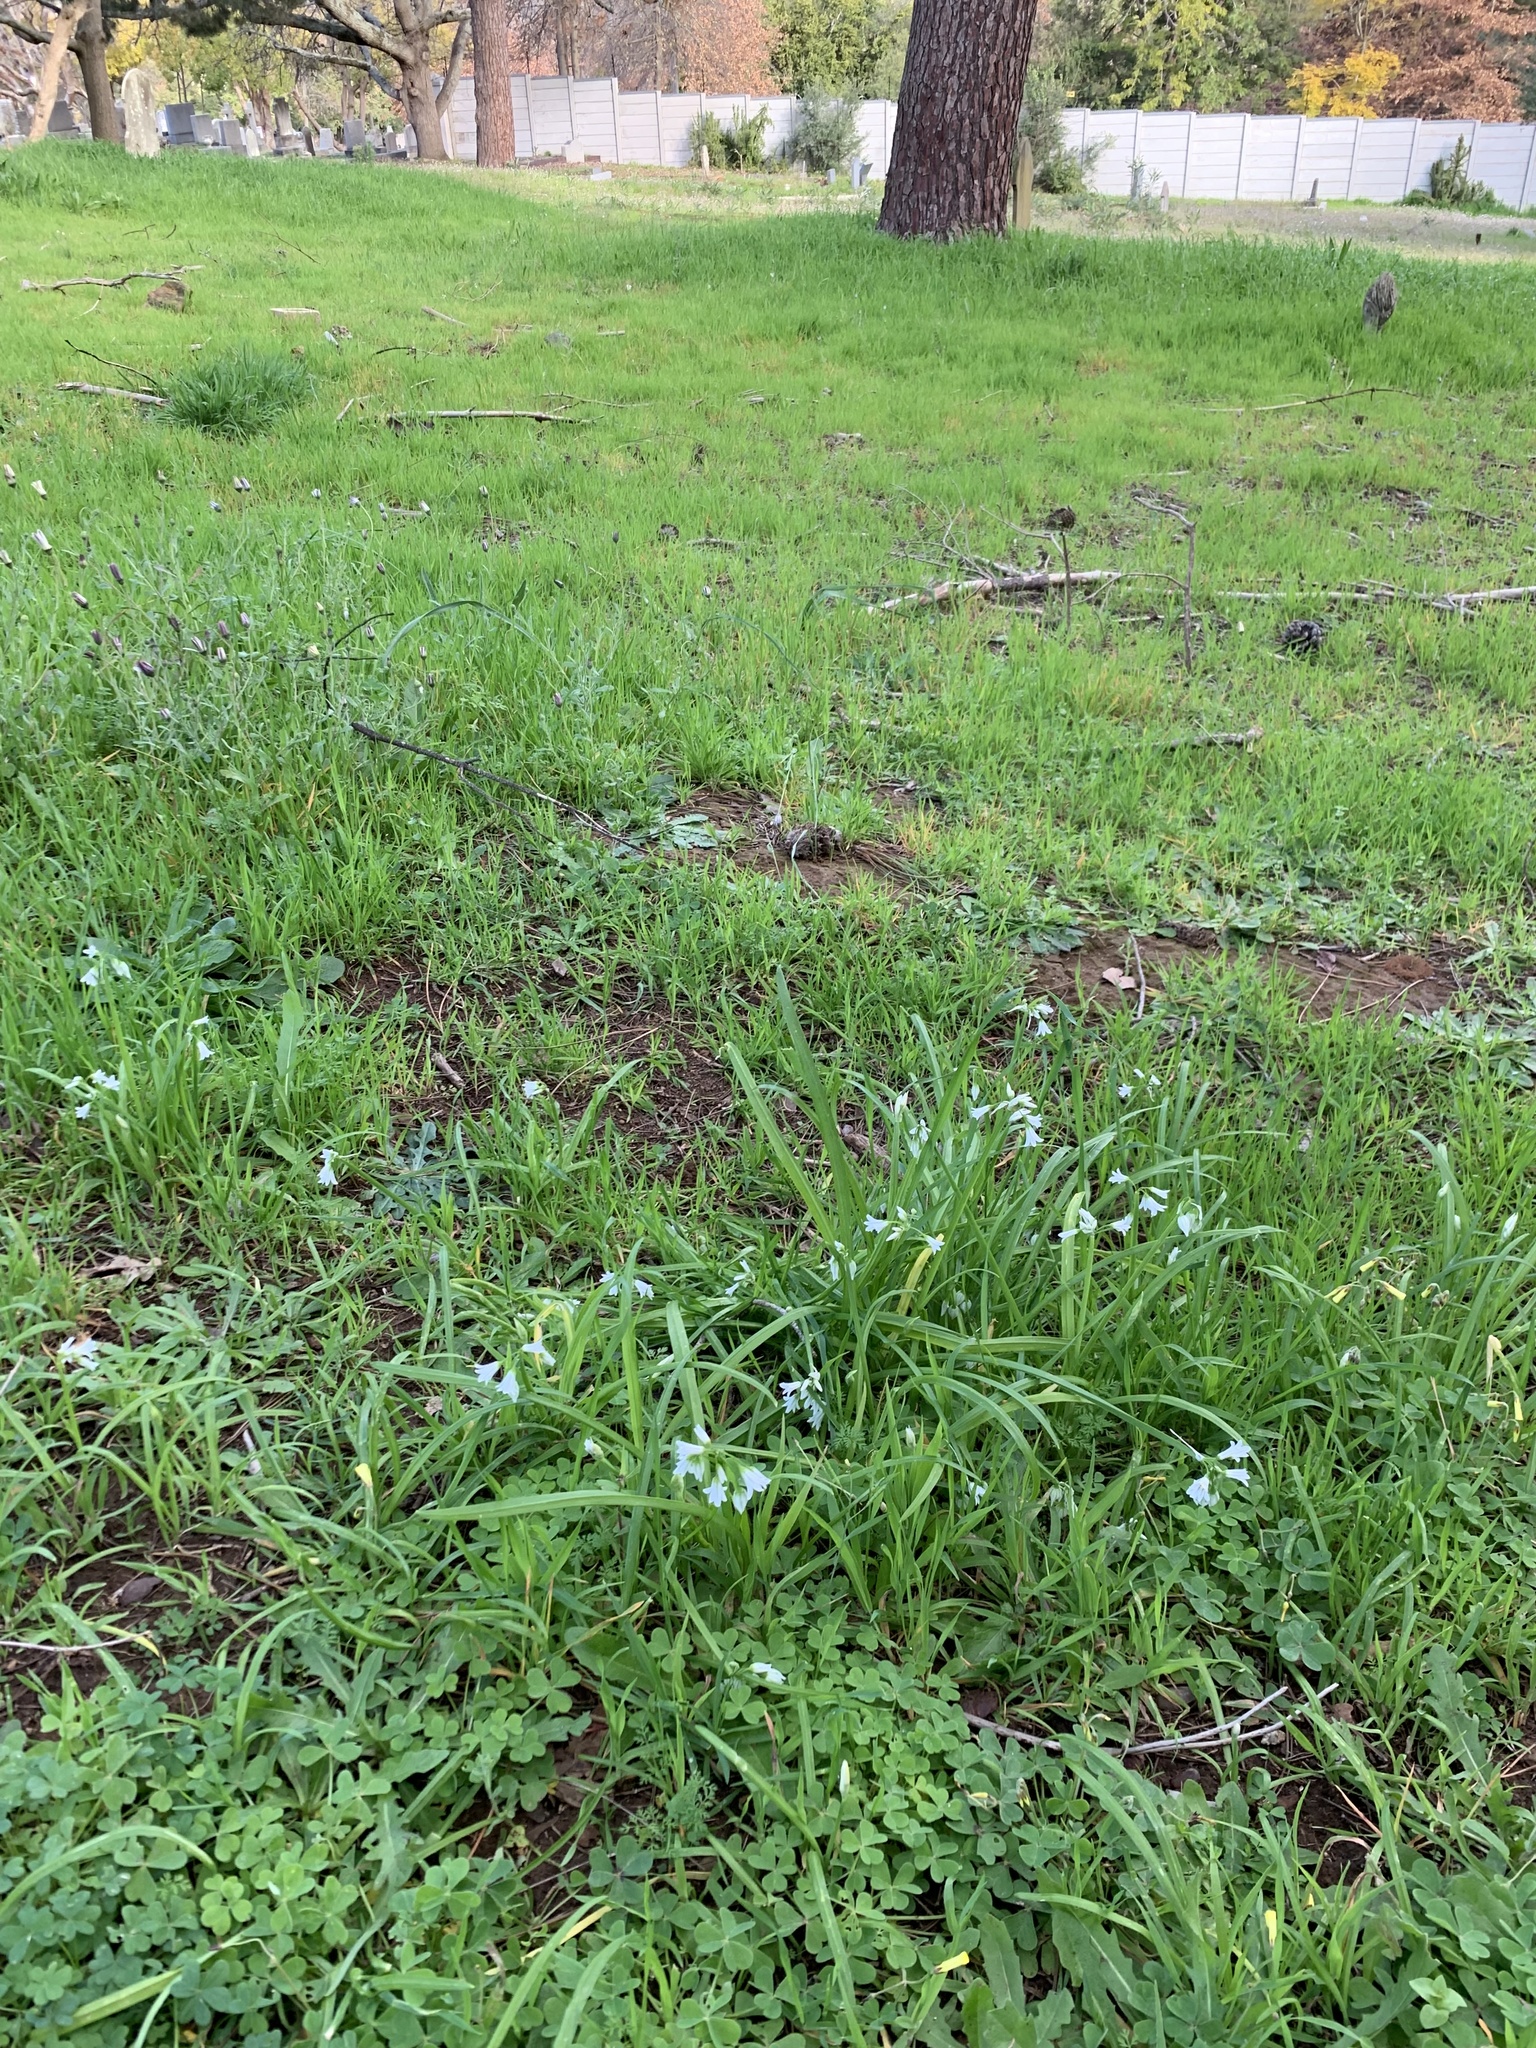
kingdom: Plantae
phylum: Tracheophyta
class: Liliopsida
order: Asparagales
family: Amaryllidaceae
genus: Allium
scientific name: Allium triquetrum
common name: Three-cornered garlic
